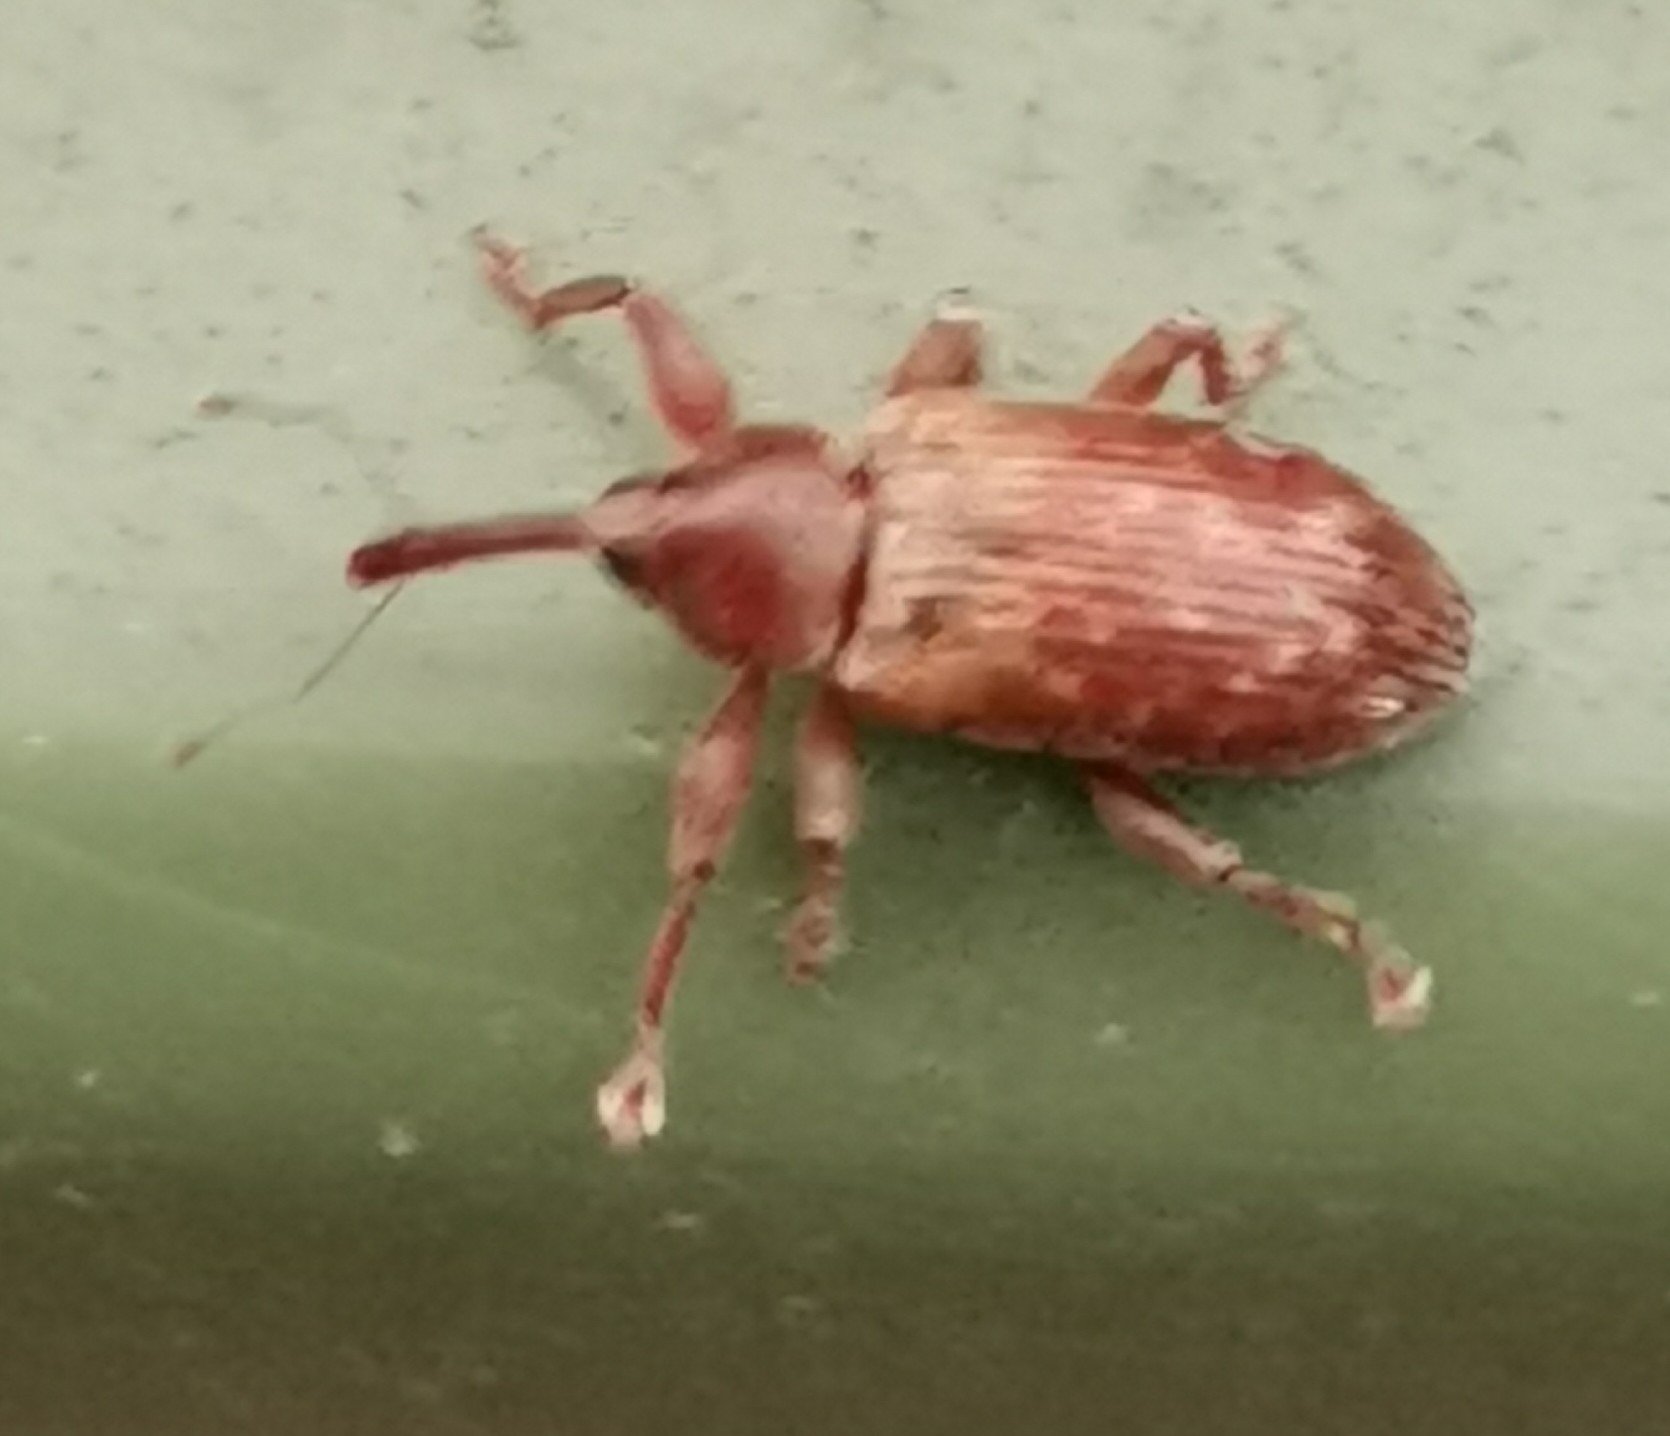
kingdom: Animalia
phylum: Arthropoda
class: Insecta
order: Coleoptera
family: Curculionidae
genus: Dorytomus
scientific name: Dorytomus tortrix
